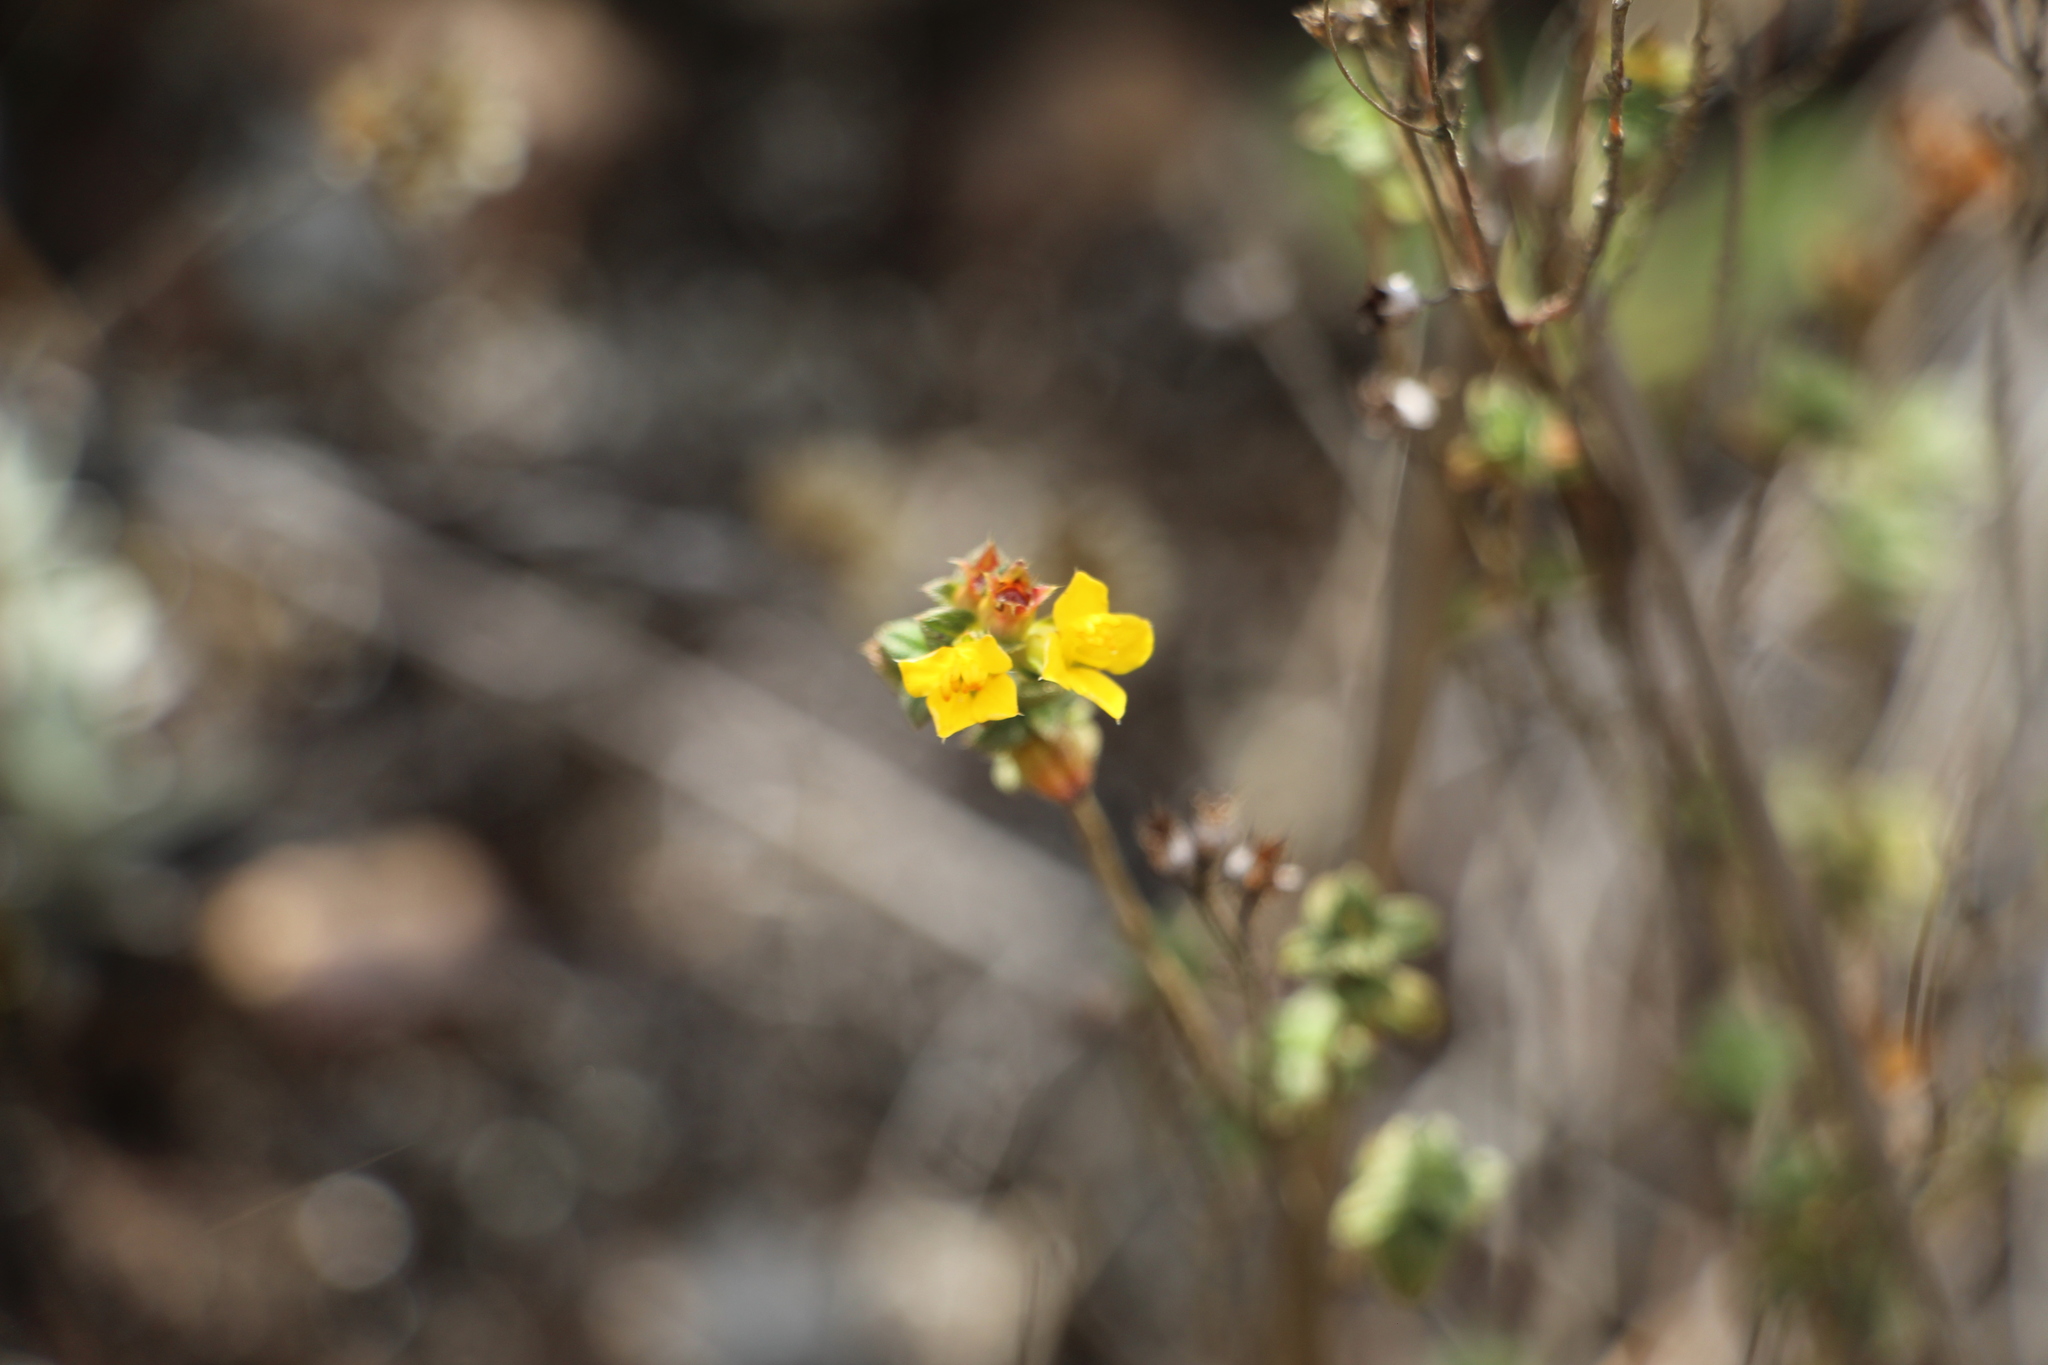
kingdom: Plantae
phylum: Tracheophyta
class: Magnoliopsida
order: Myrtales
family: Melastomataceae
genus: Chaetolepis
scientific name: Chaetolepis microphylla
